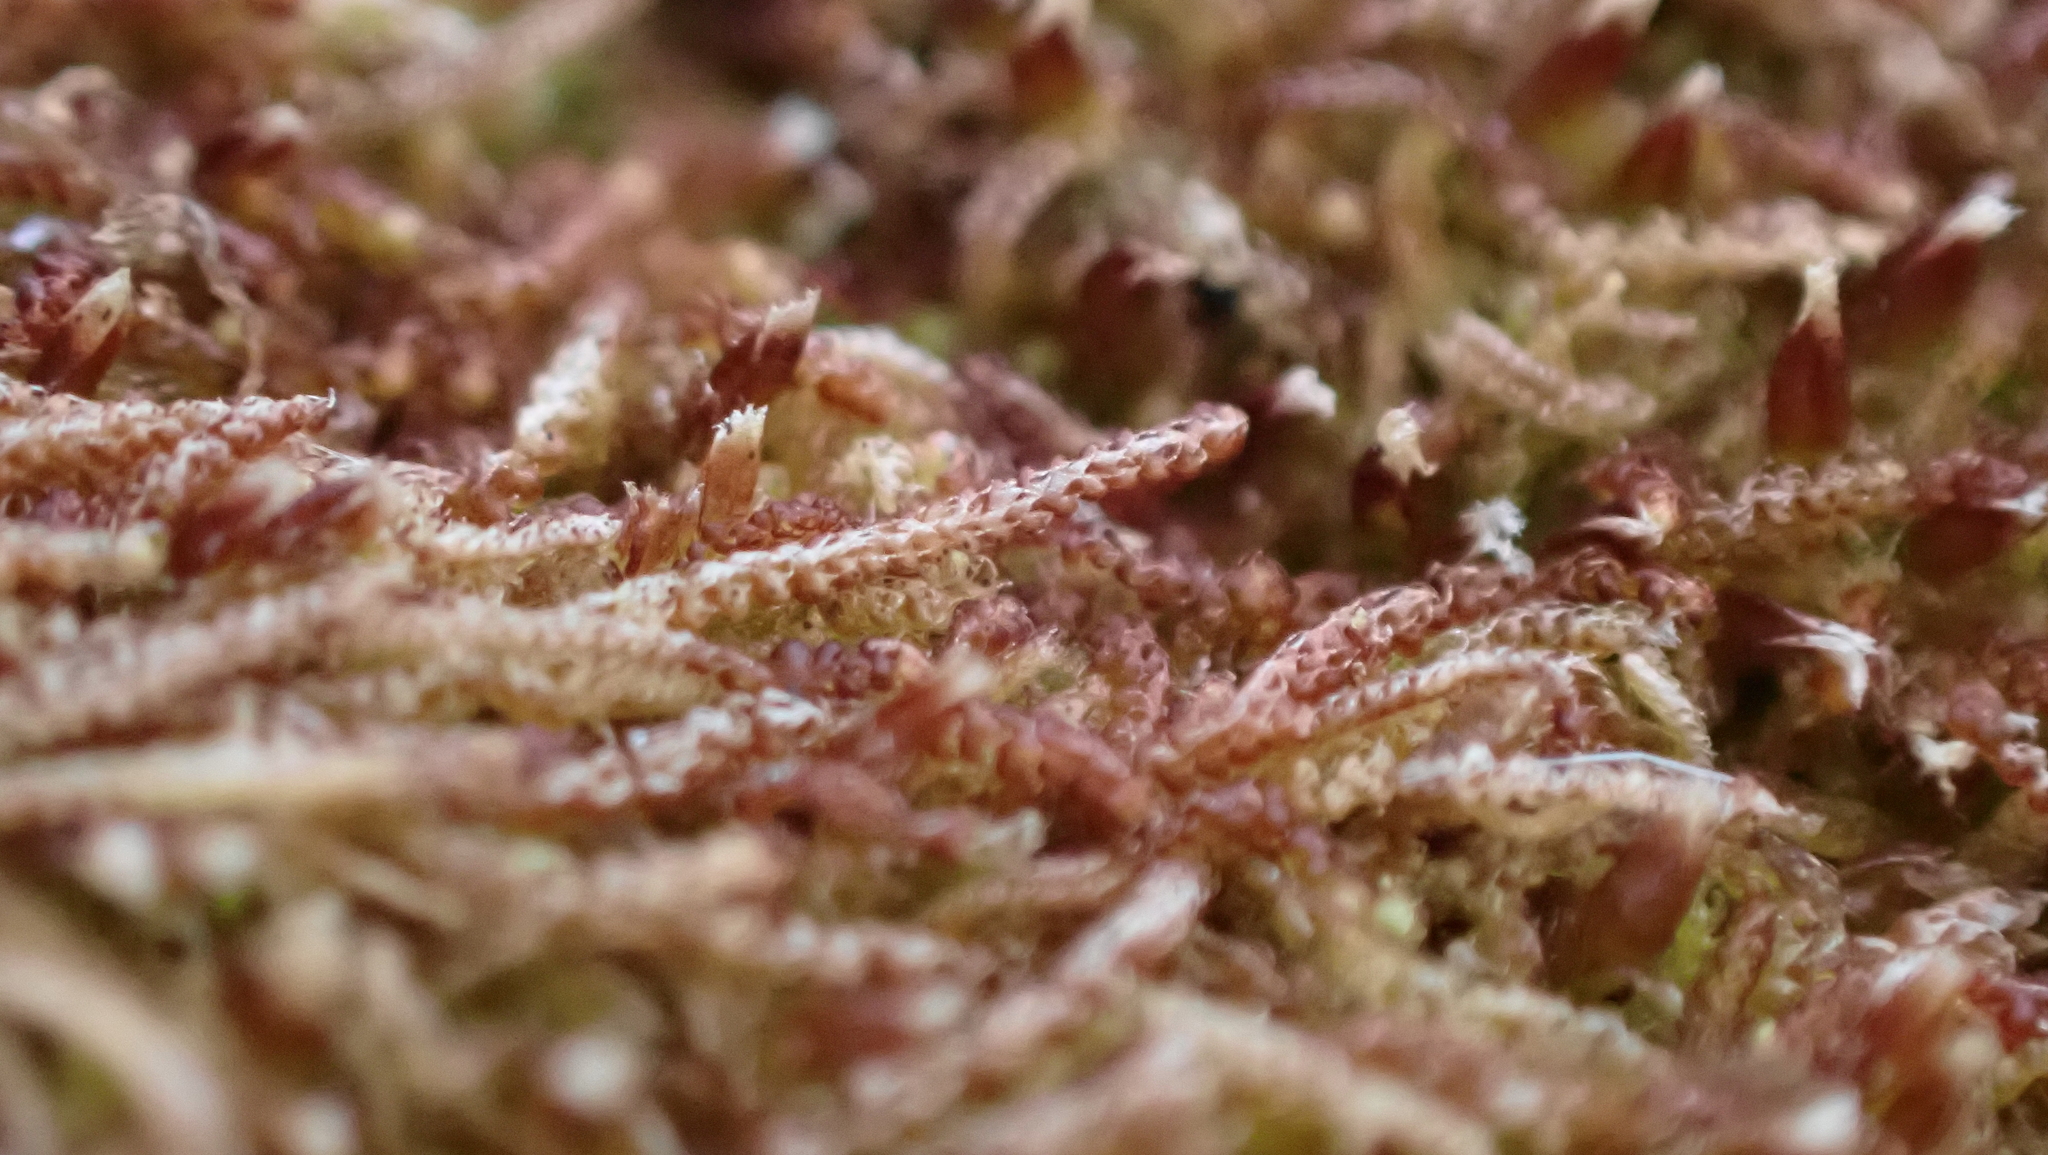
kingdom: Plantae
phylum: Marchantiophyta
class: Jungermanniopsida
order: Jungermanniales
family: Cephaloziaceae
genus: Nowellia
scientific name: Nowellia curvifolia
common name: Wood rustwort
